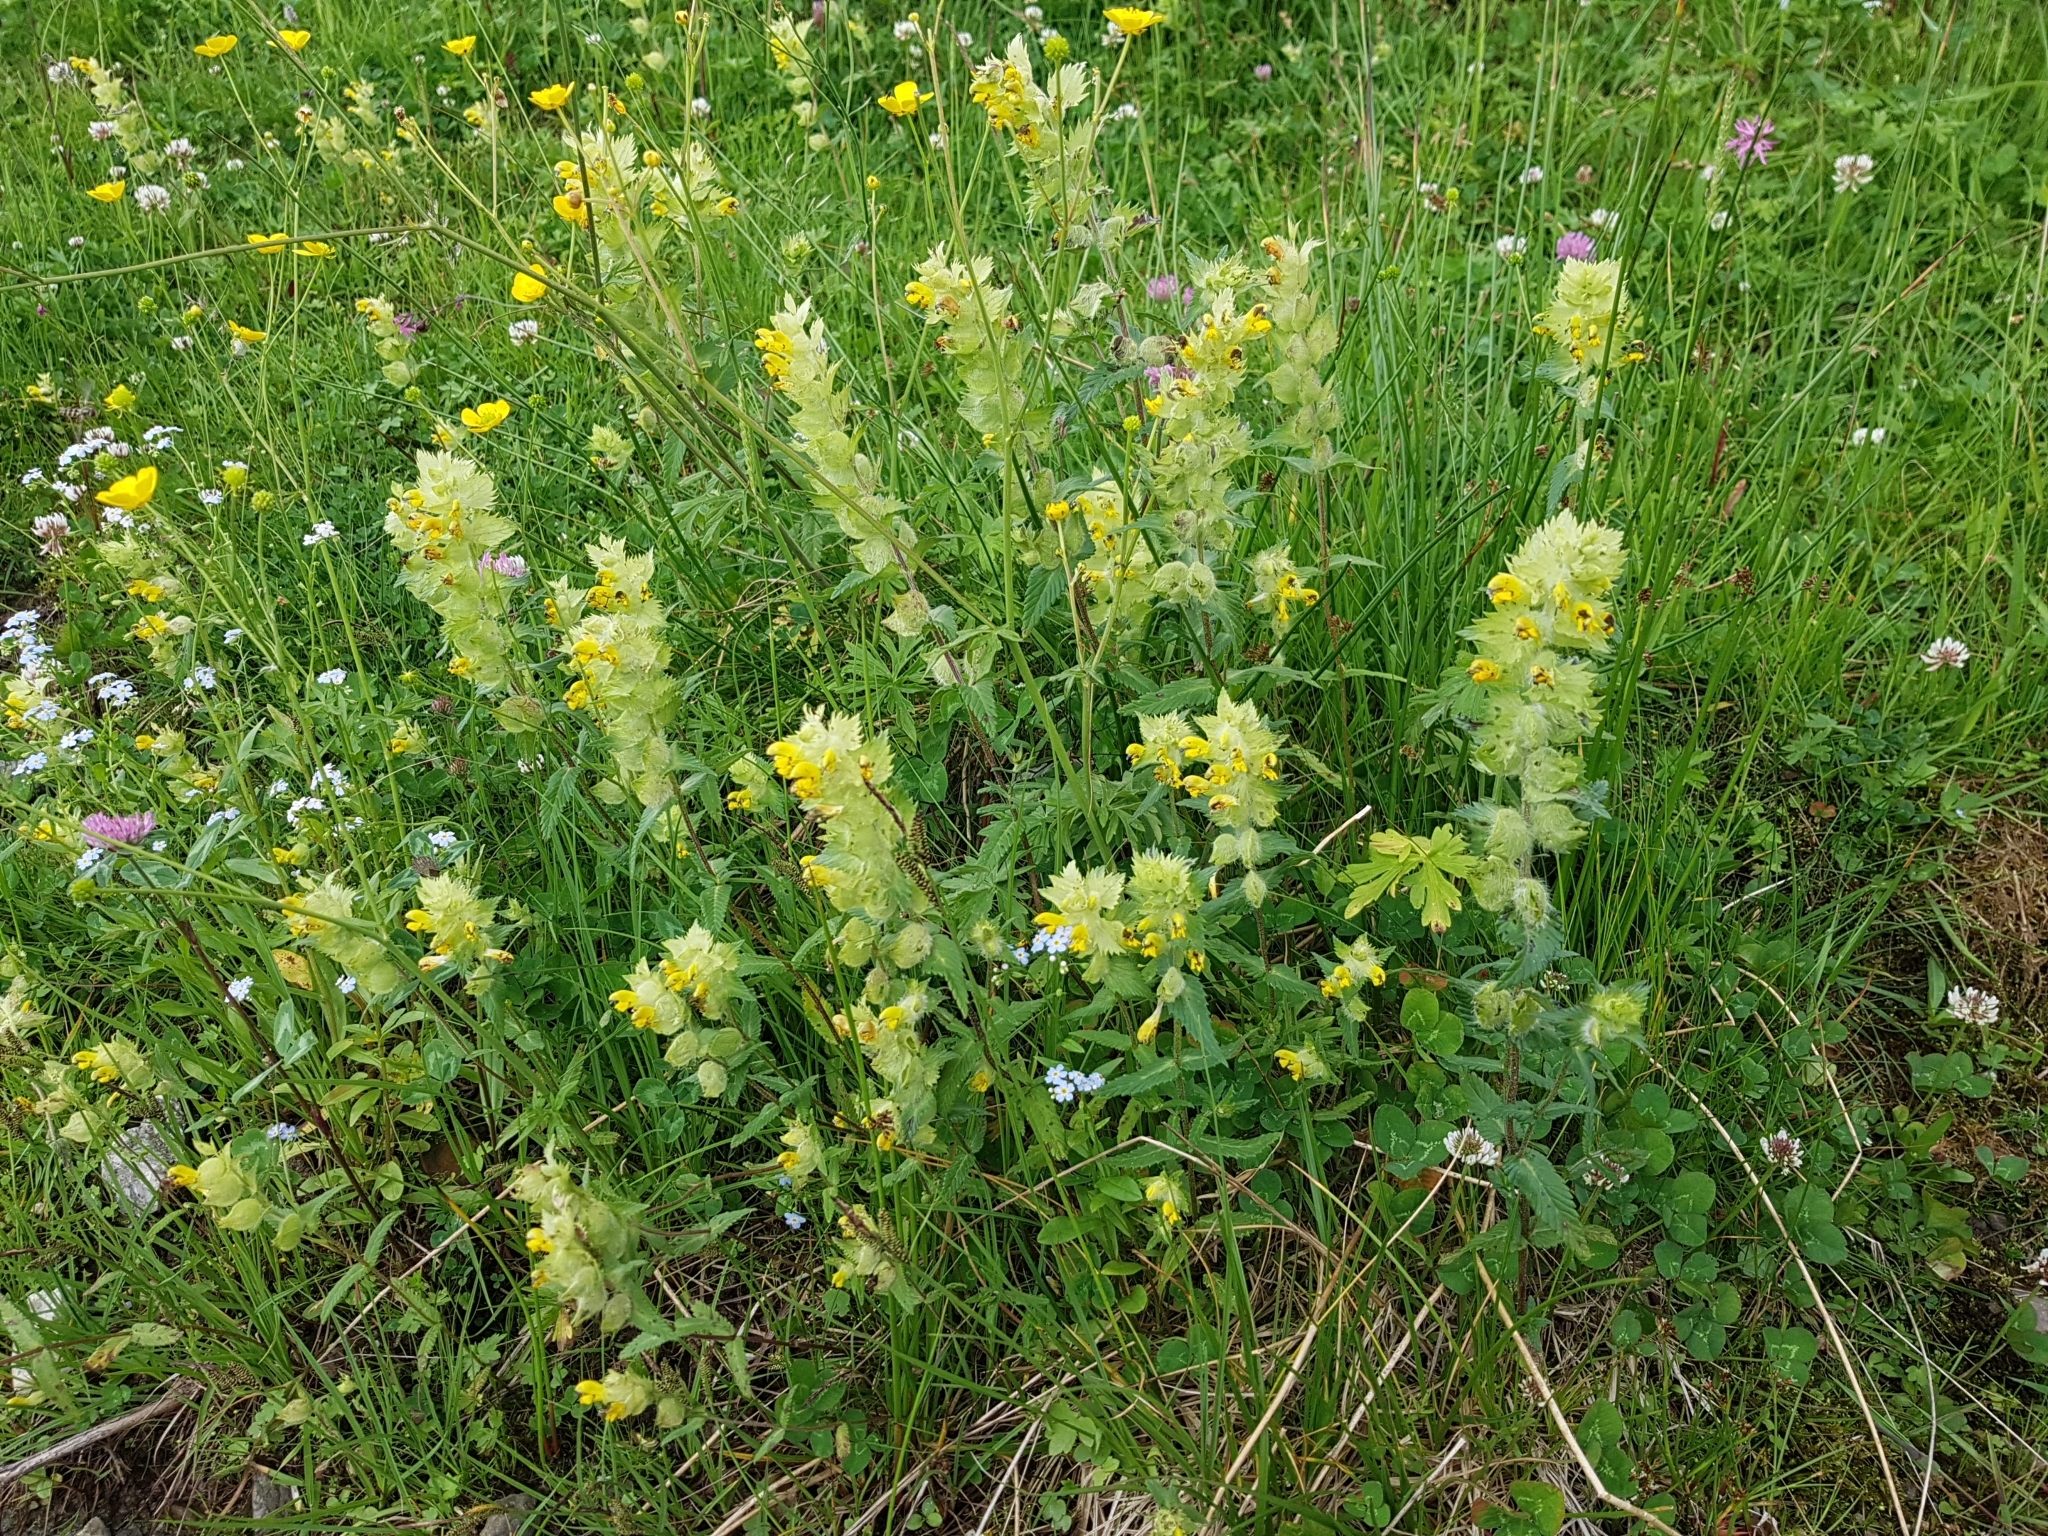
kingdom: Plantae
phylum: Tracheophyta
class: Magnoliopsida
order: Lamiales
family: Orobanchaceae
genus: Rhinanthus
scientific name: Rhinanthus alectorolophus
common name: Greater yellow-rattle
